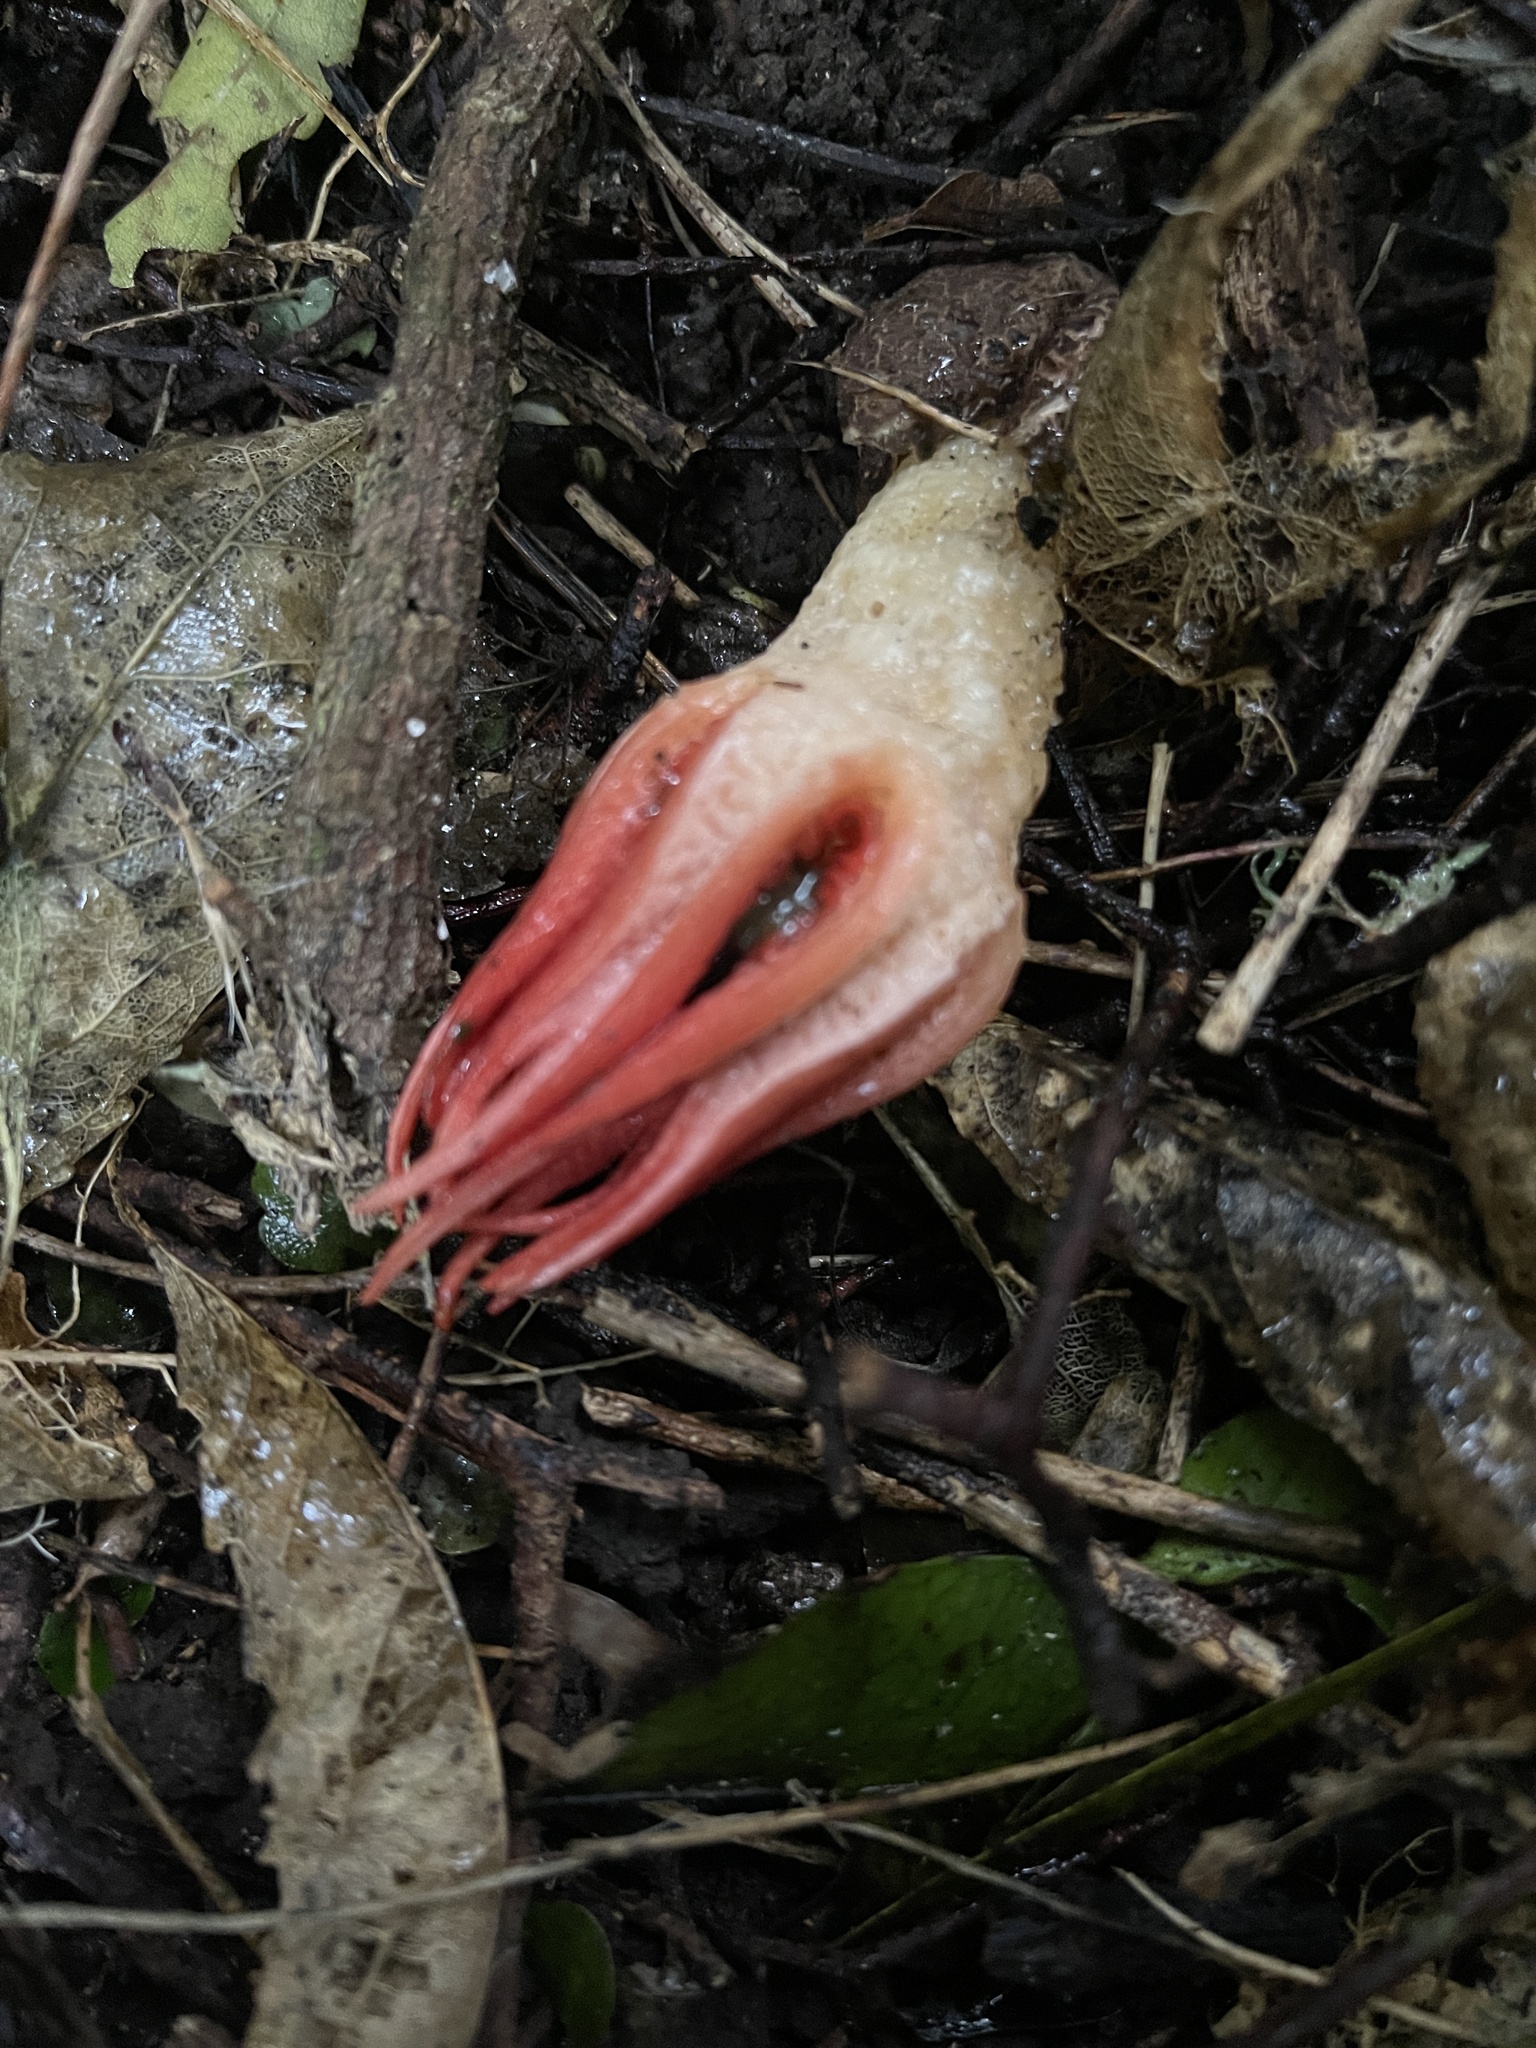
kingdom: Fungi
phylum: Basidiomycota
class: Agaricomycetes
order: Phallales
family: Phallaceae
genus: Aseroe
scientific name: Aseroe rubra
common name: Starfish fungus
